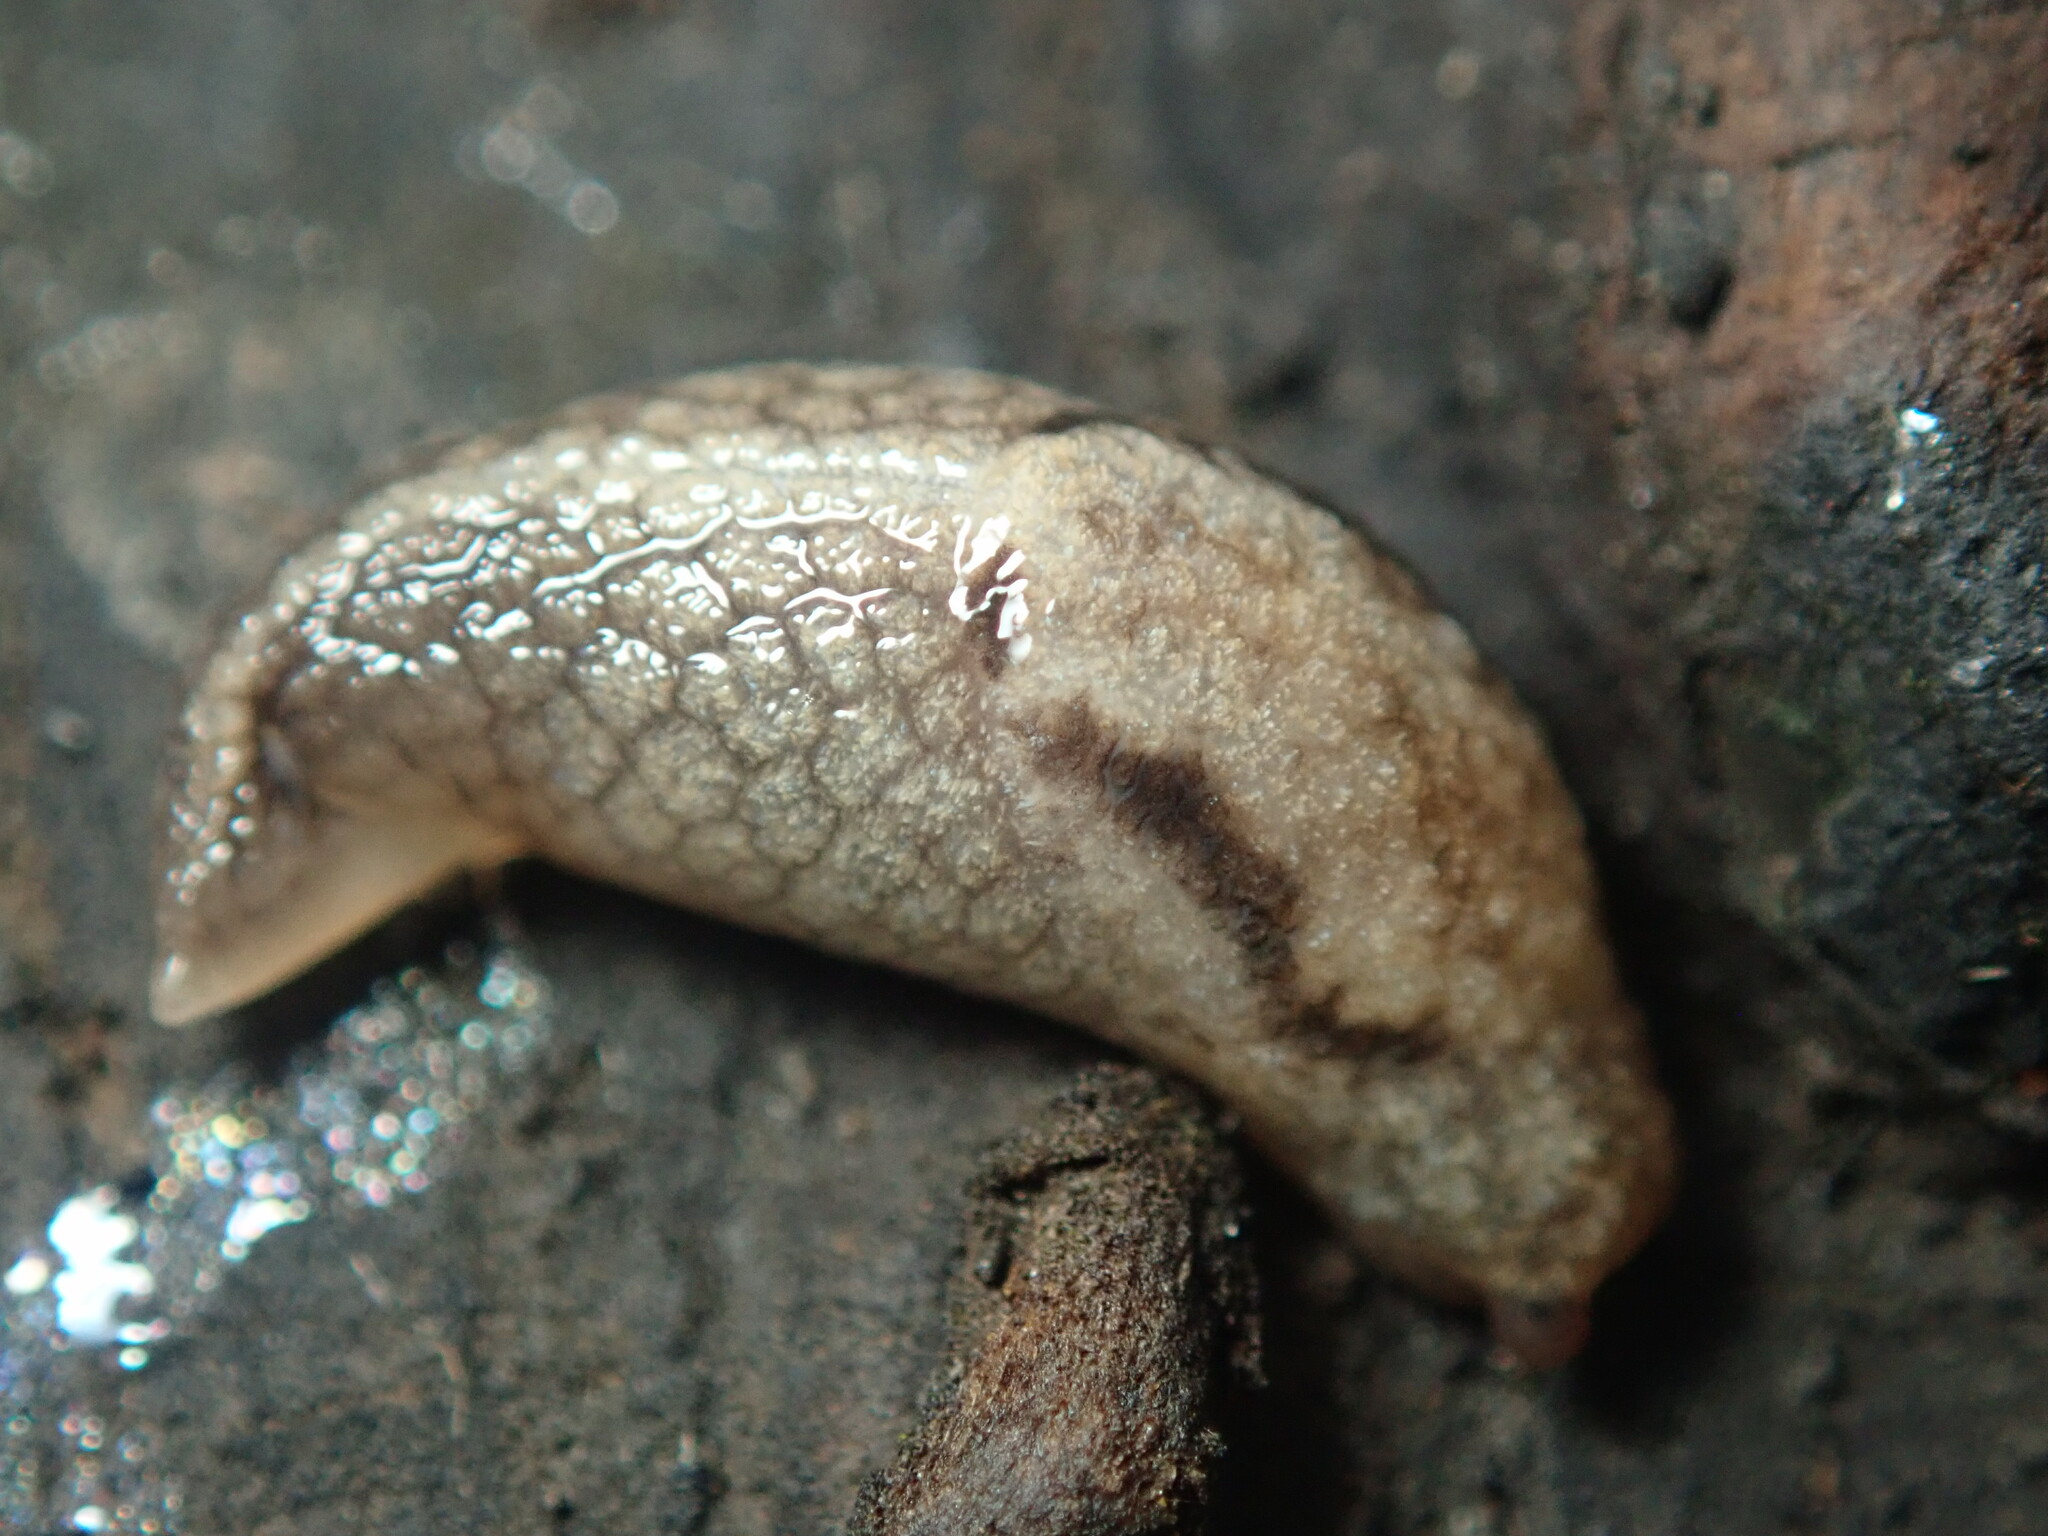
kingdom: Animalia
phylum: Mollusca
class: Gastropoda
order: Stylommatophora
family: Ariolimacidae
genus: Prophysaon
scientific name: Prophysaon andersonii
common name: Reticulate taildropper
